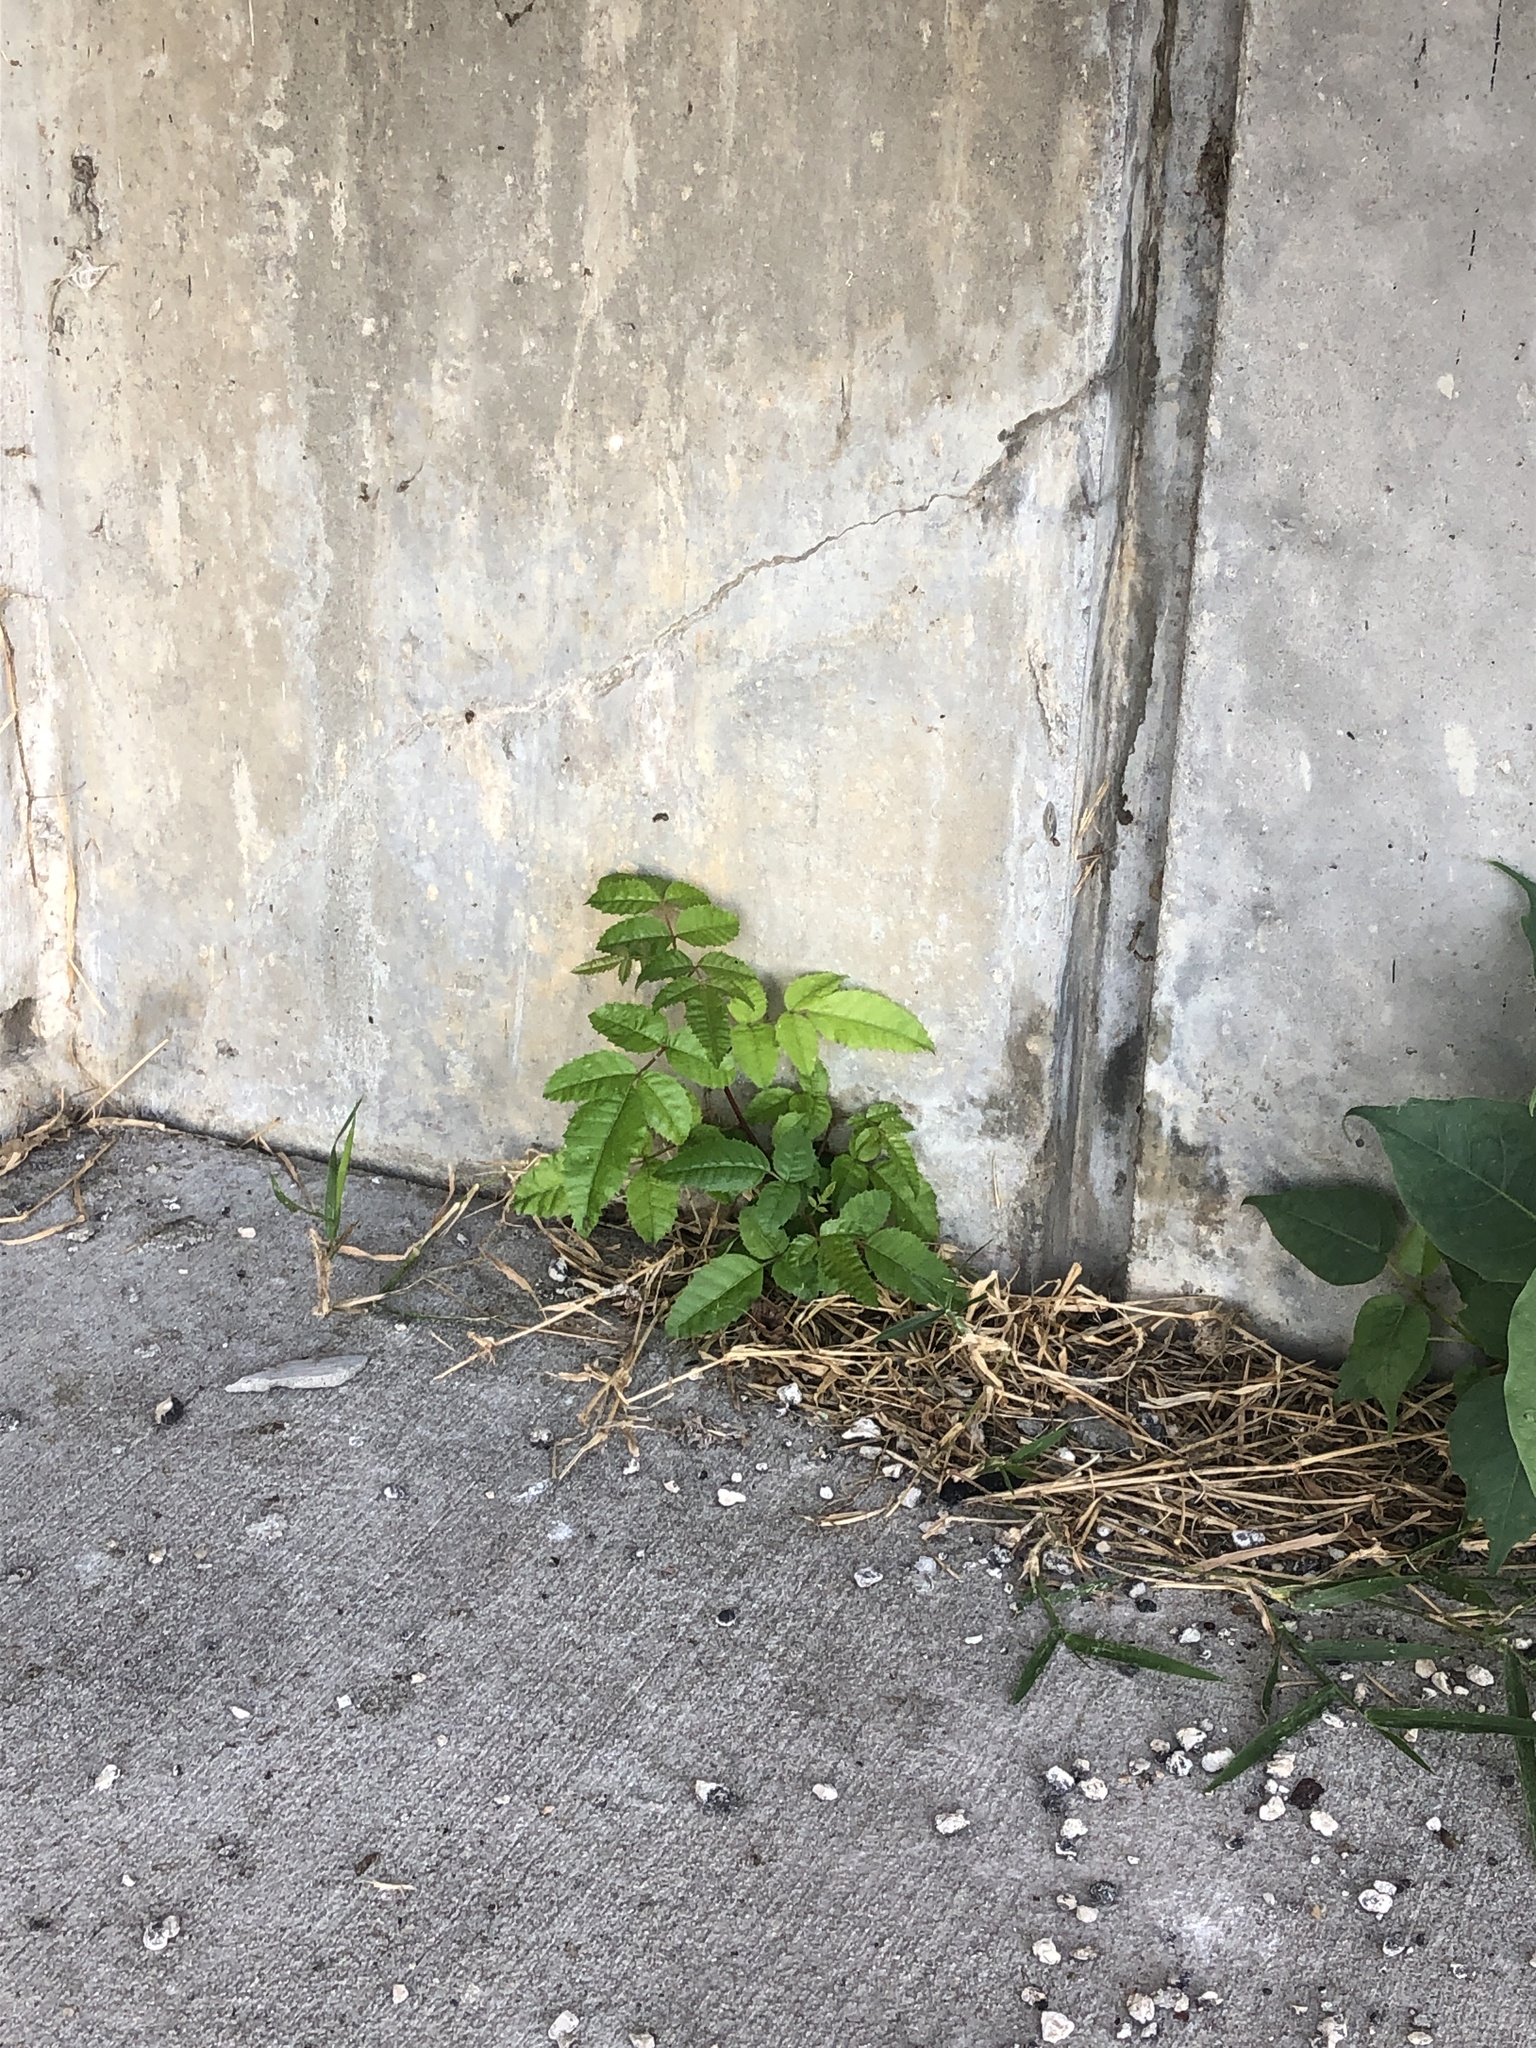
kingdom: Plantae
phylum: Tracheophyta
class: Magnoliopsida
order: Sapindales
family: Anacardiaceae
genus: Schinus
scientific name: Schinus terebinthifolia
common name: Brazilian peppertree
